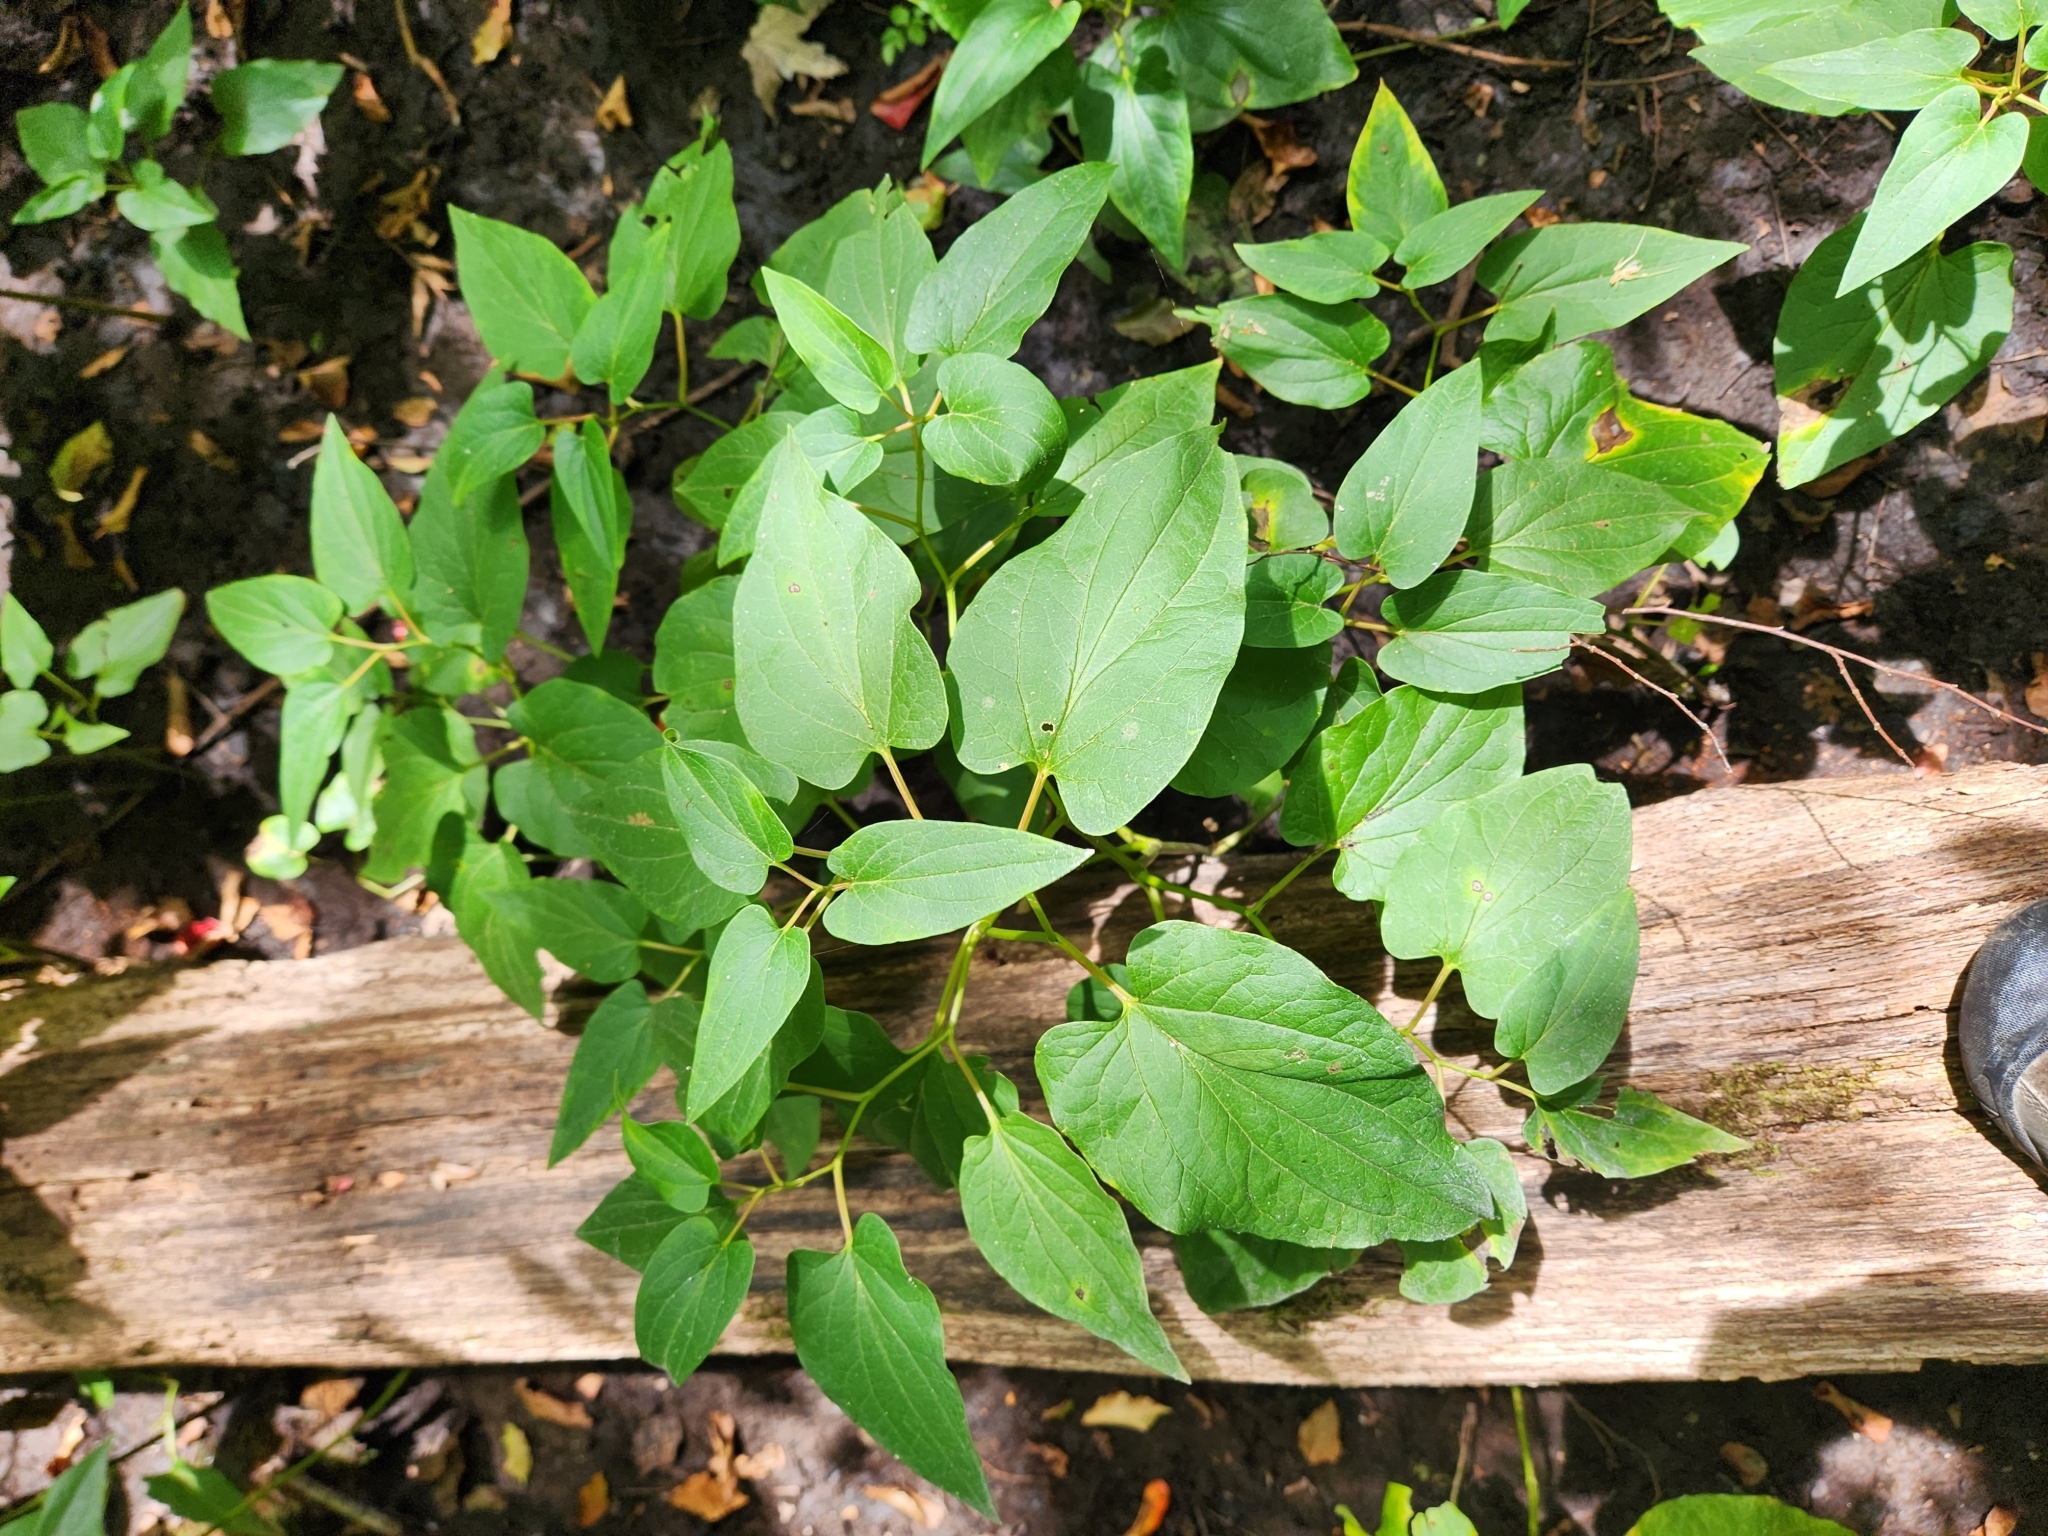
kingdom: Plantae
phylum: Tracheophyta
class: Magnoliopsida
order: Piperales
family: Saururaceae
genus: Saururus
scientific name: Saururus cernuus
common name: Lizard's-tail
